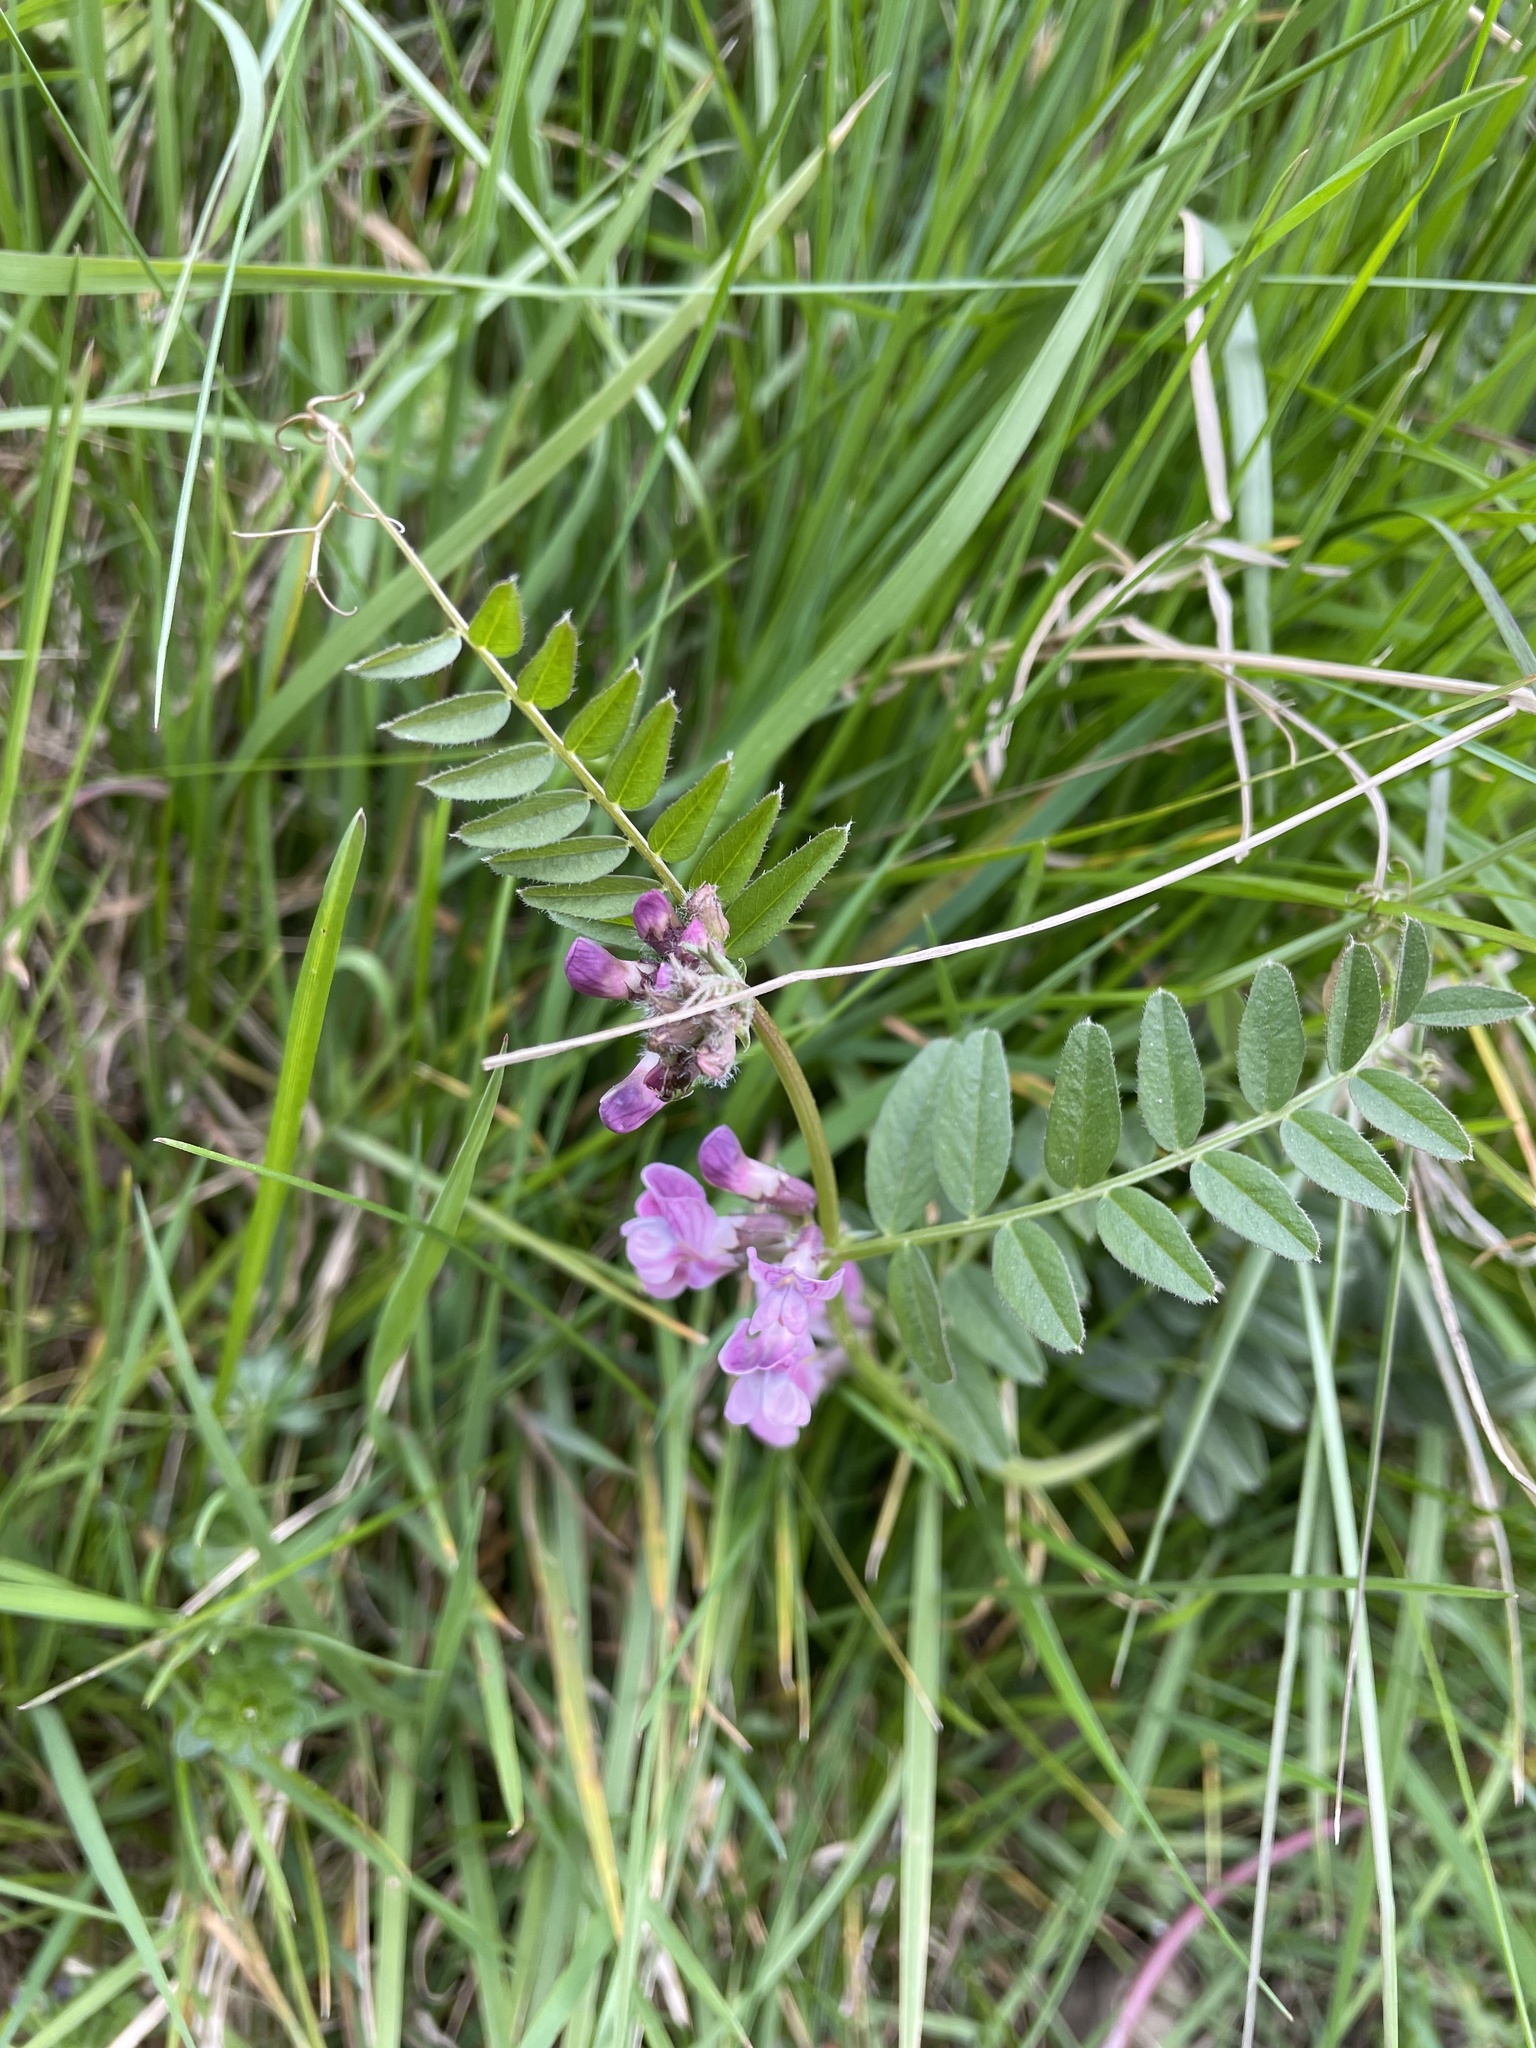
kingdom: Plantae
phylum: Tracheophyta
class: Magnoliopsida
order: Fabales
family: Fabaceae
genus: Vicia
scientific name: Vicia sepium
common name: Bush vetch
